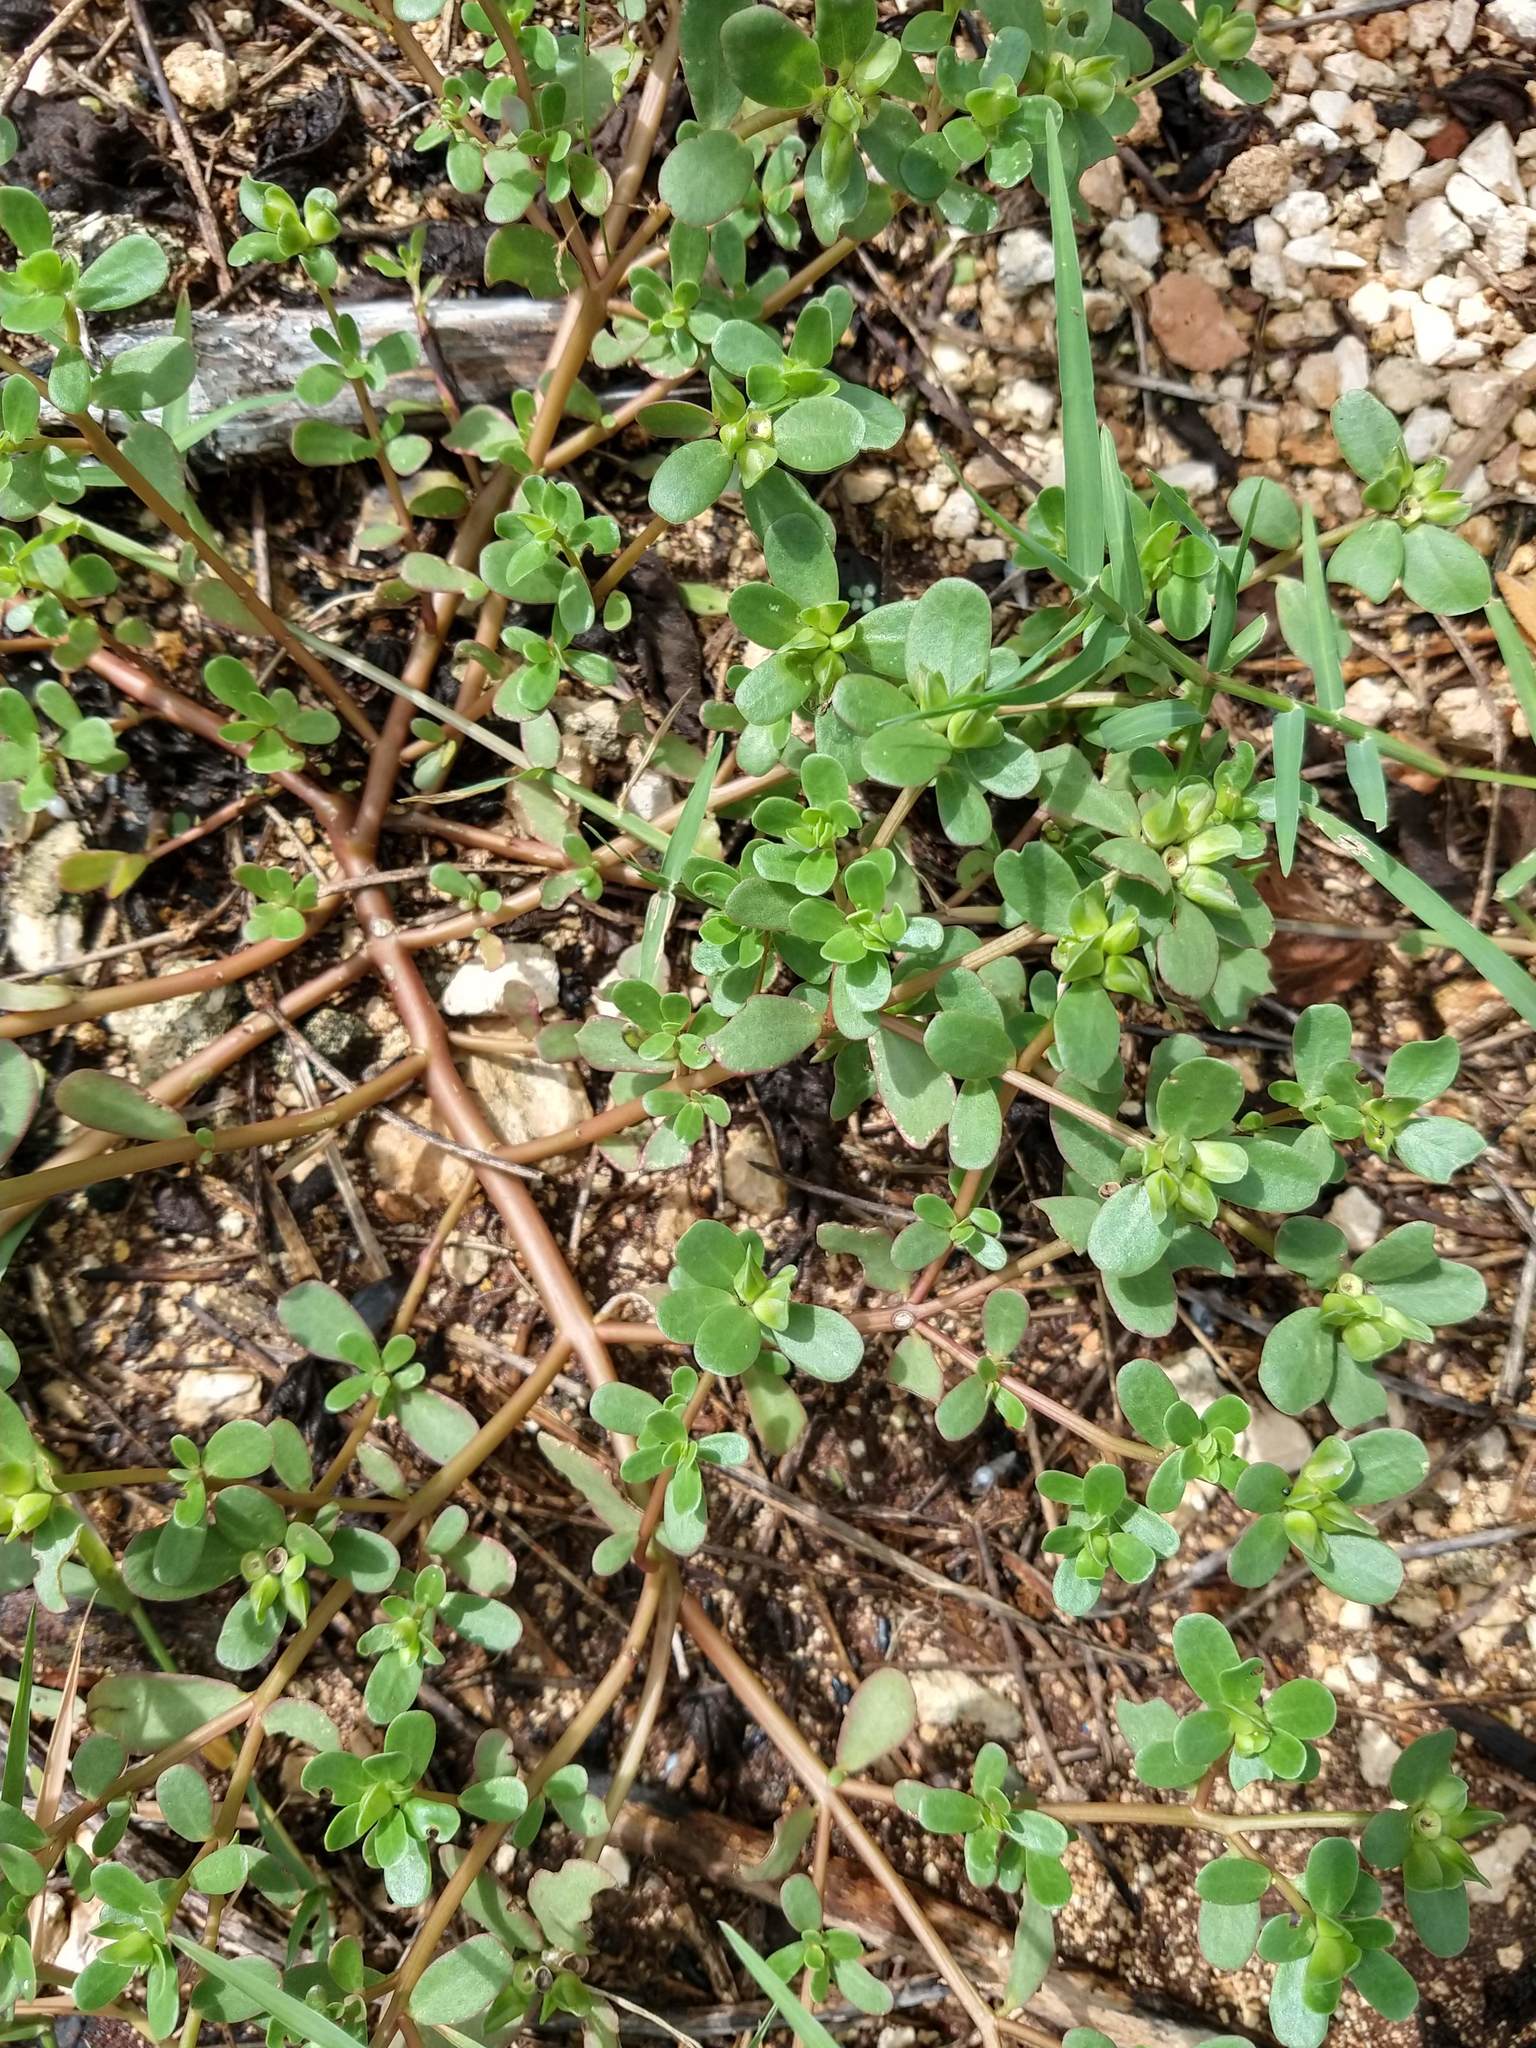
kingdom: Plantae
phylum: Tracheophyta
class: Magnoliopsida
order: Caryophyllales
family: Portulacaceae
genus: Portulaca
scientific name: Portulaca oleracea
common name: Common purslane
